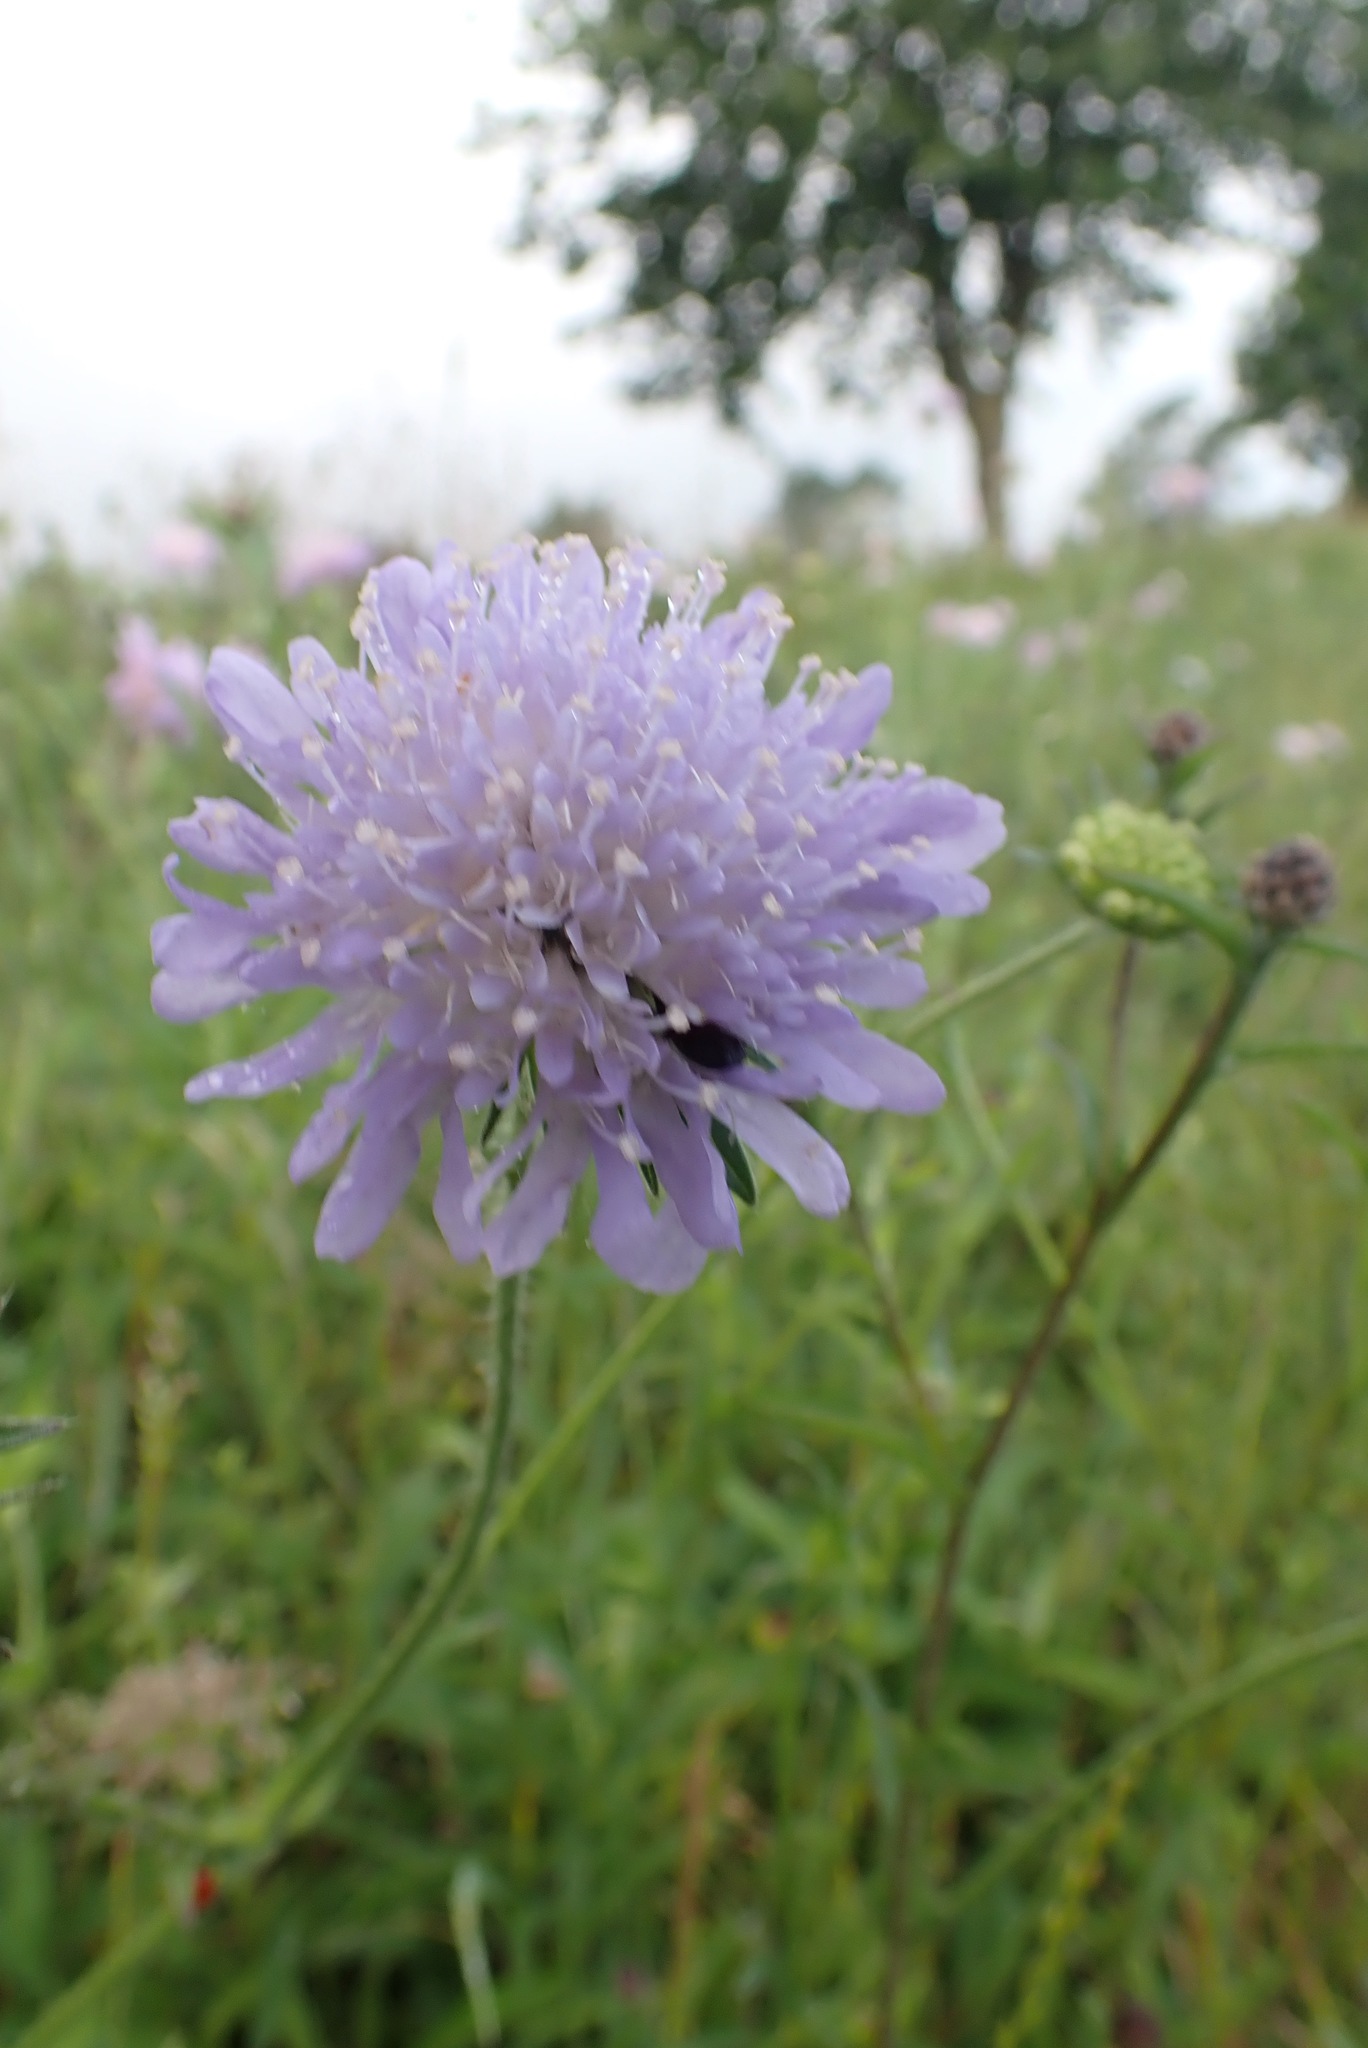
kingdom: Plantae
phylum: Tracheophyta
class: Magnoliopsida
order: Dipsacales
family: Caprifoliaceae
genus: Knautia
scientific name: Knautia arvensis
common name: Field scabiosa
